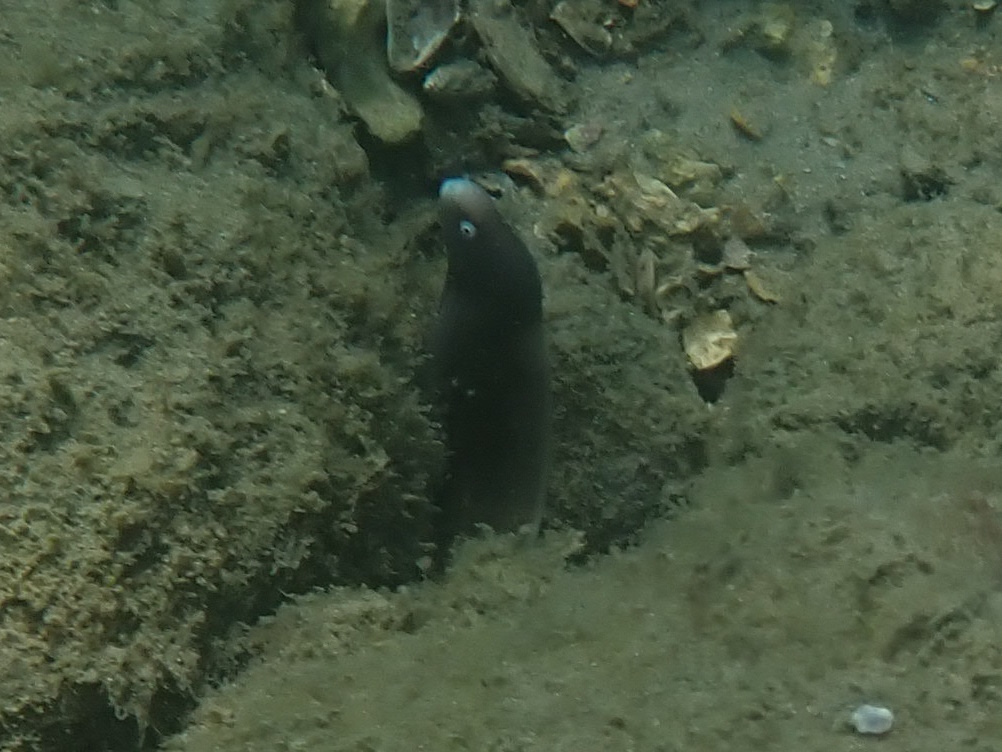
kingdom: Animalia
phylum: Chordata
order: Anguilliformes
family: Muraenidae
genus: Gymnothorax
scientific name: Gymnothorax thyrsoideus
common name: Greyface moray
